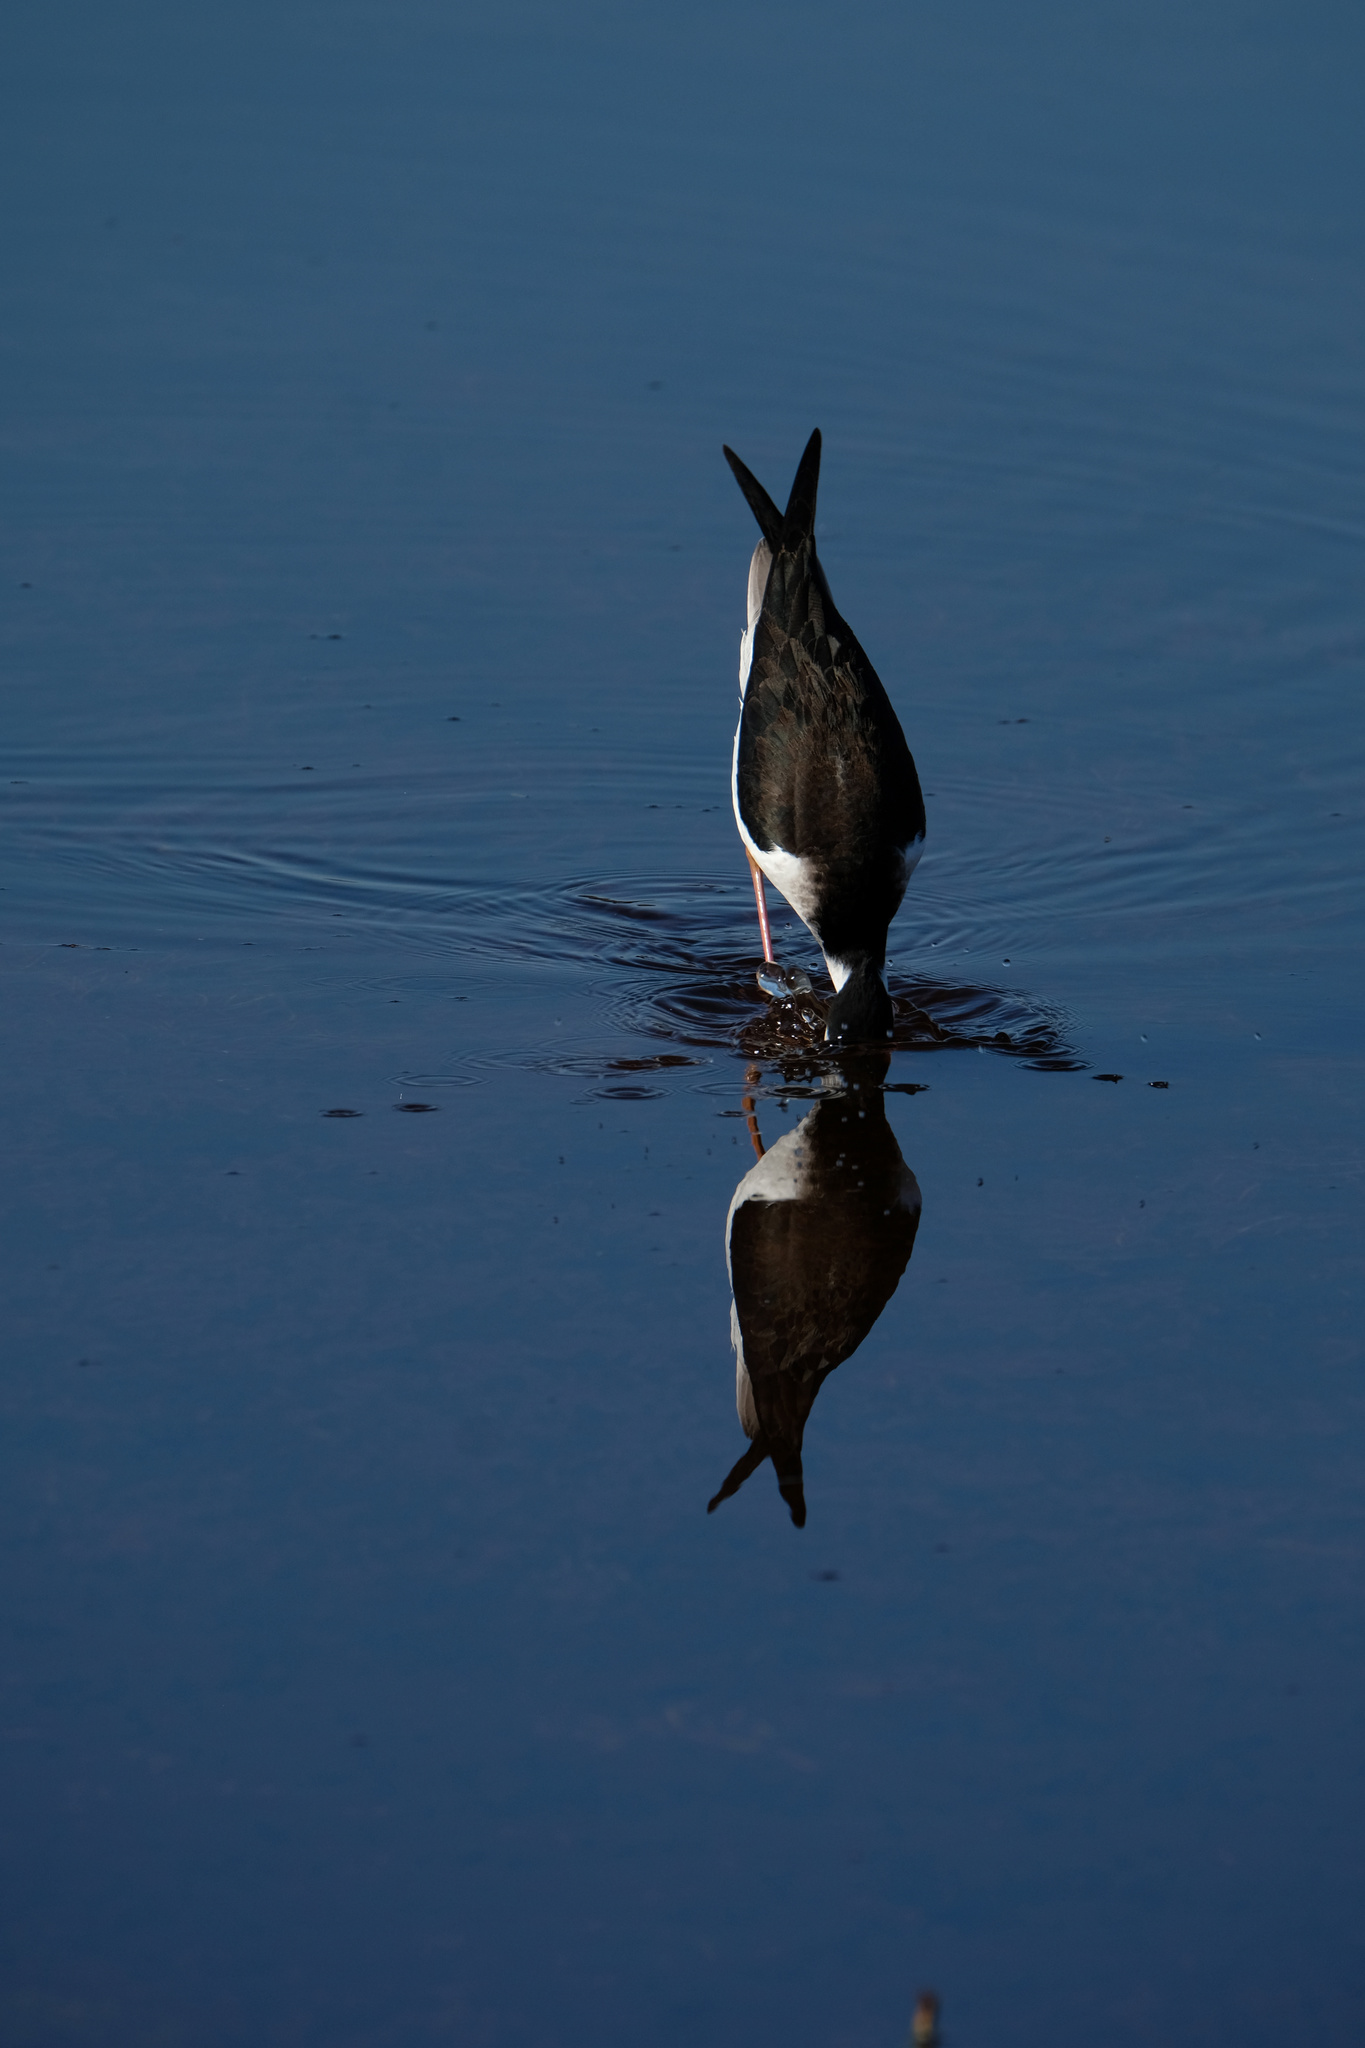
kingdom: Animalia
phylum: Chordata
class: Aves
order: Charadriiformes
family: Recurvirostridae
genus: Himantopus
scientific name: Himantopus mexicanus
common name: Black-necked stilt
